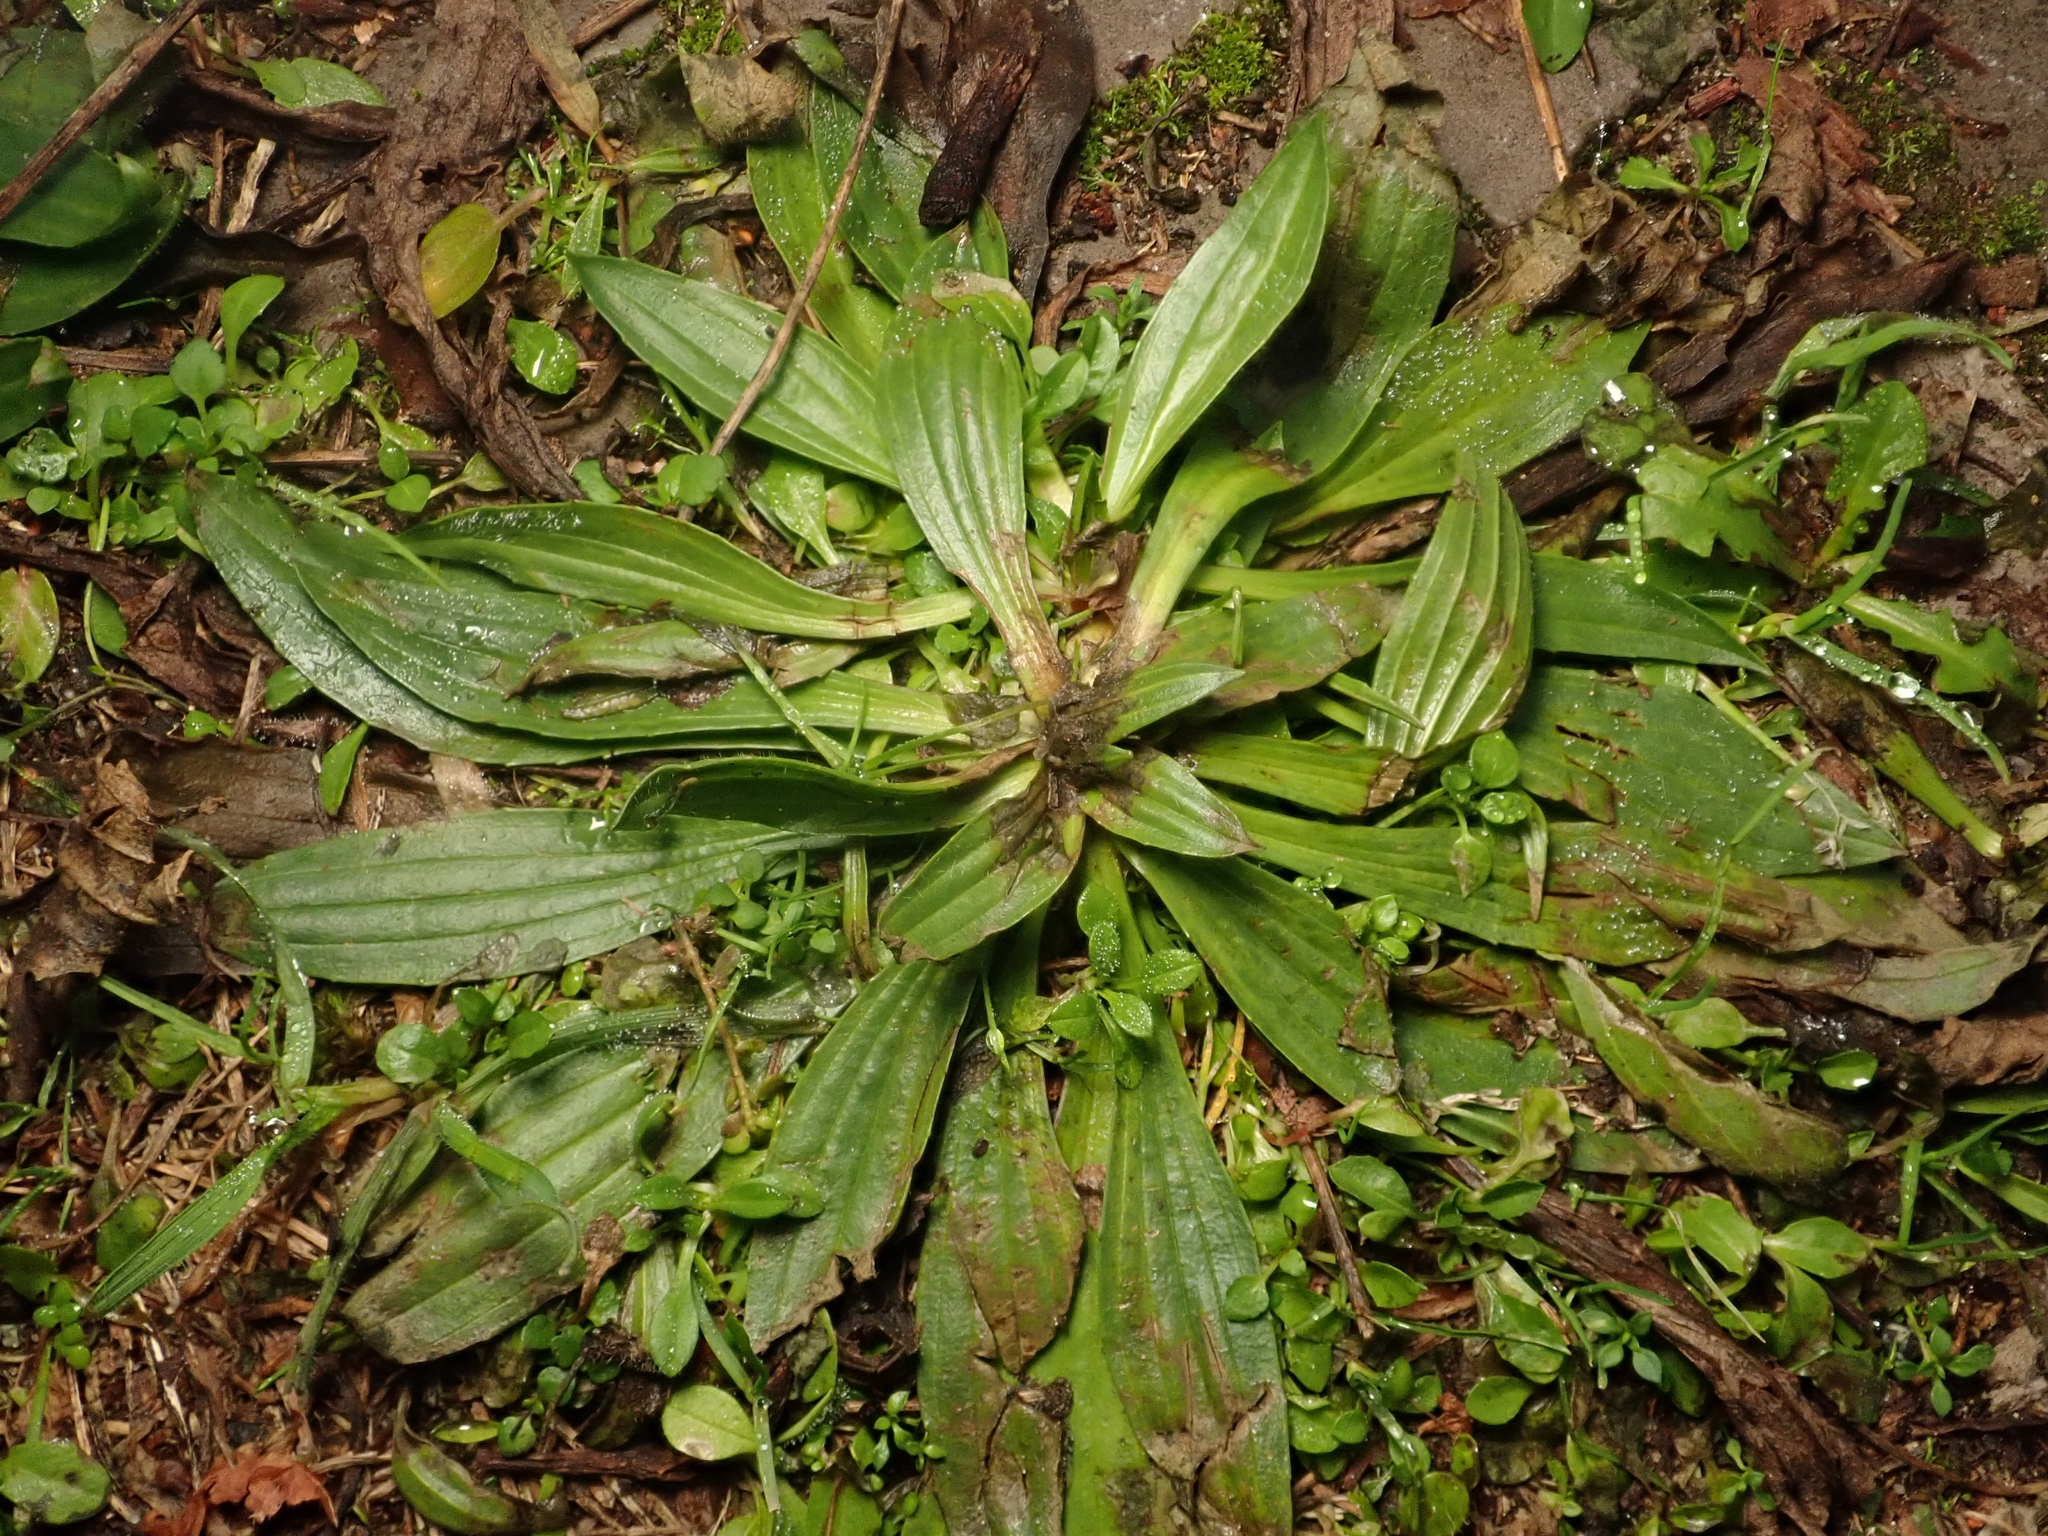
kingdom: Plantae
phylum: Tracheophyta
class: Magnoliopsida
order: Lamiales
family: Plantaginaceae
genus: Plantago
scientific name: Plantago lanceolata
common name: Ribwort plantain
